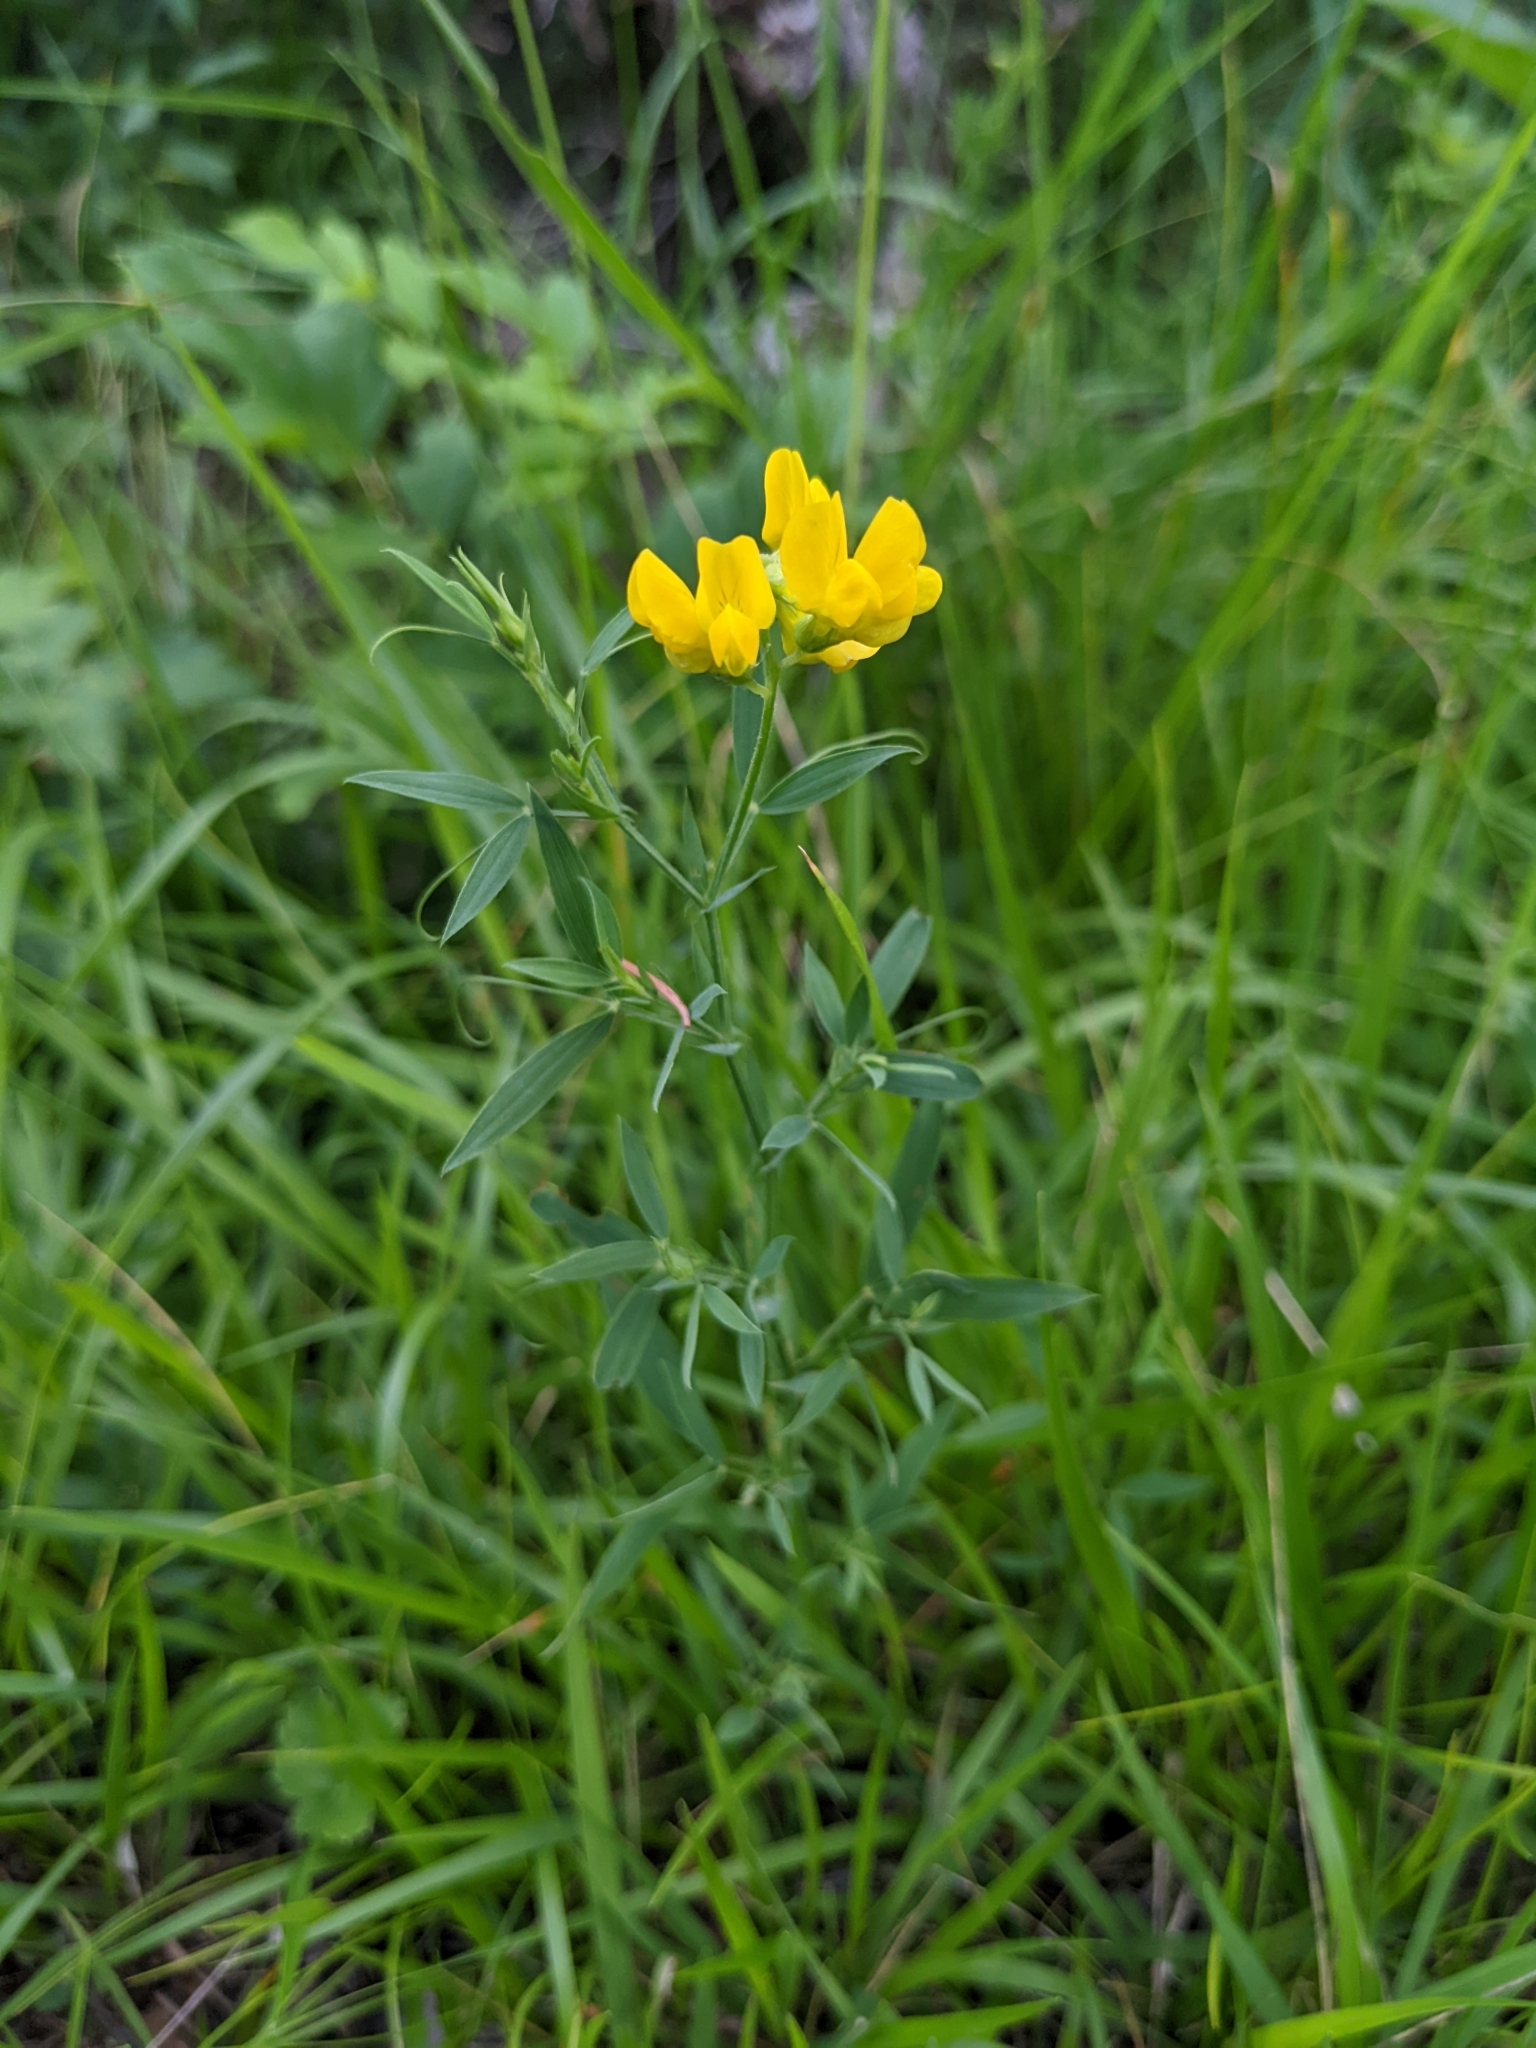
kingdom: Plantae
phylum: Tracheophyta
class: Magnoliopsida
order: Fabales
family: Fabaceae
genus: Lathyrus
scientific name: Lathyrus pratensis
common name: Meadow vetchling
